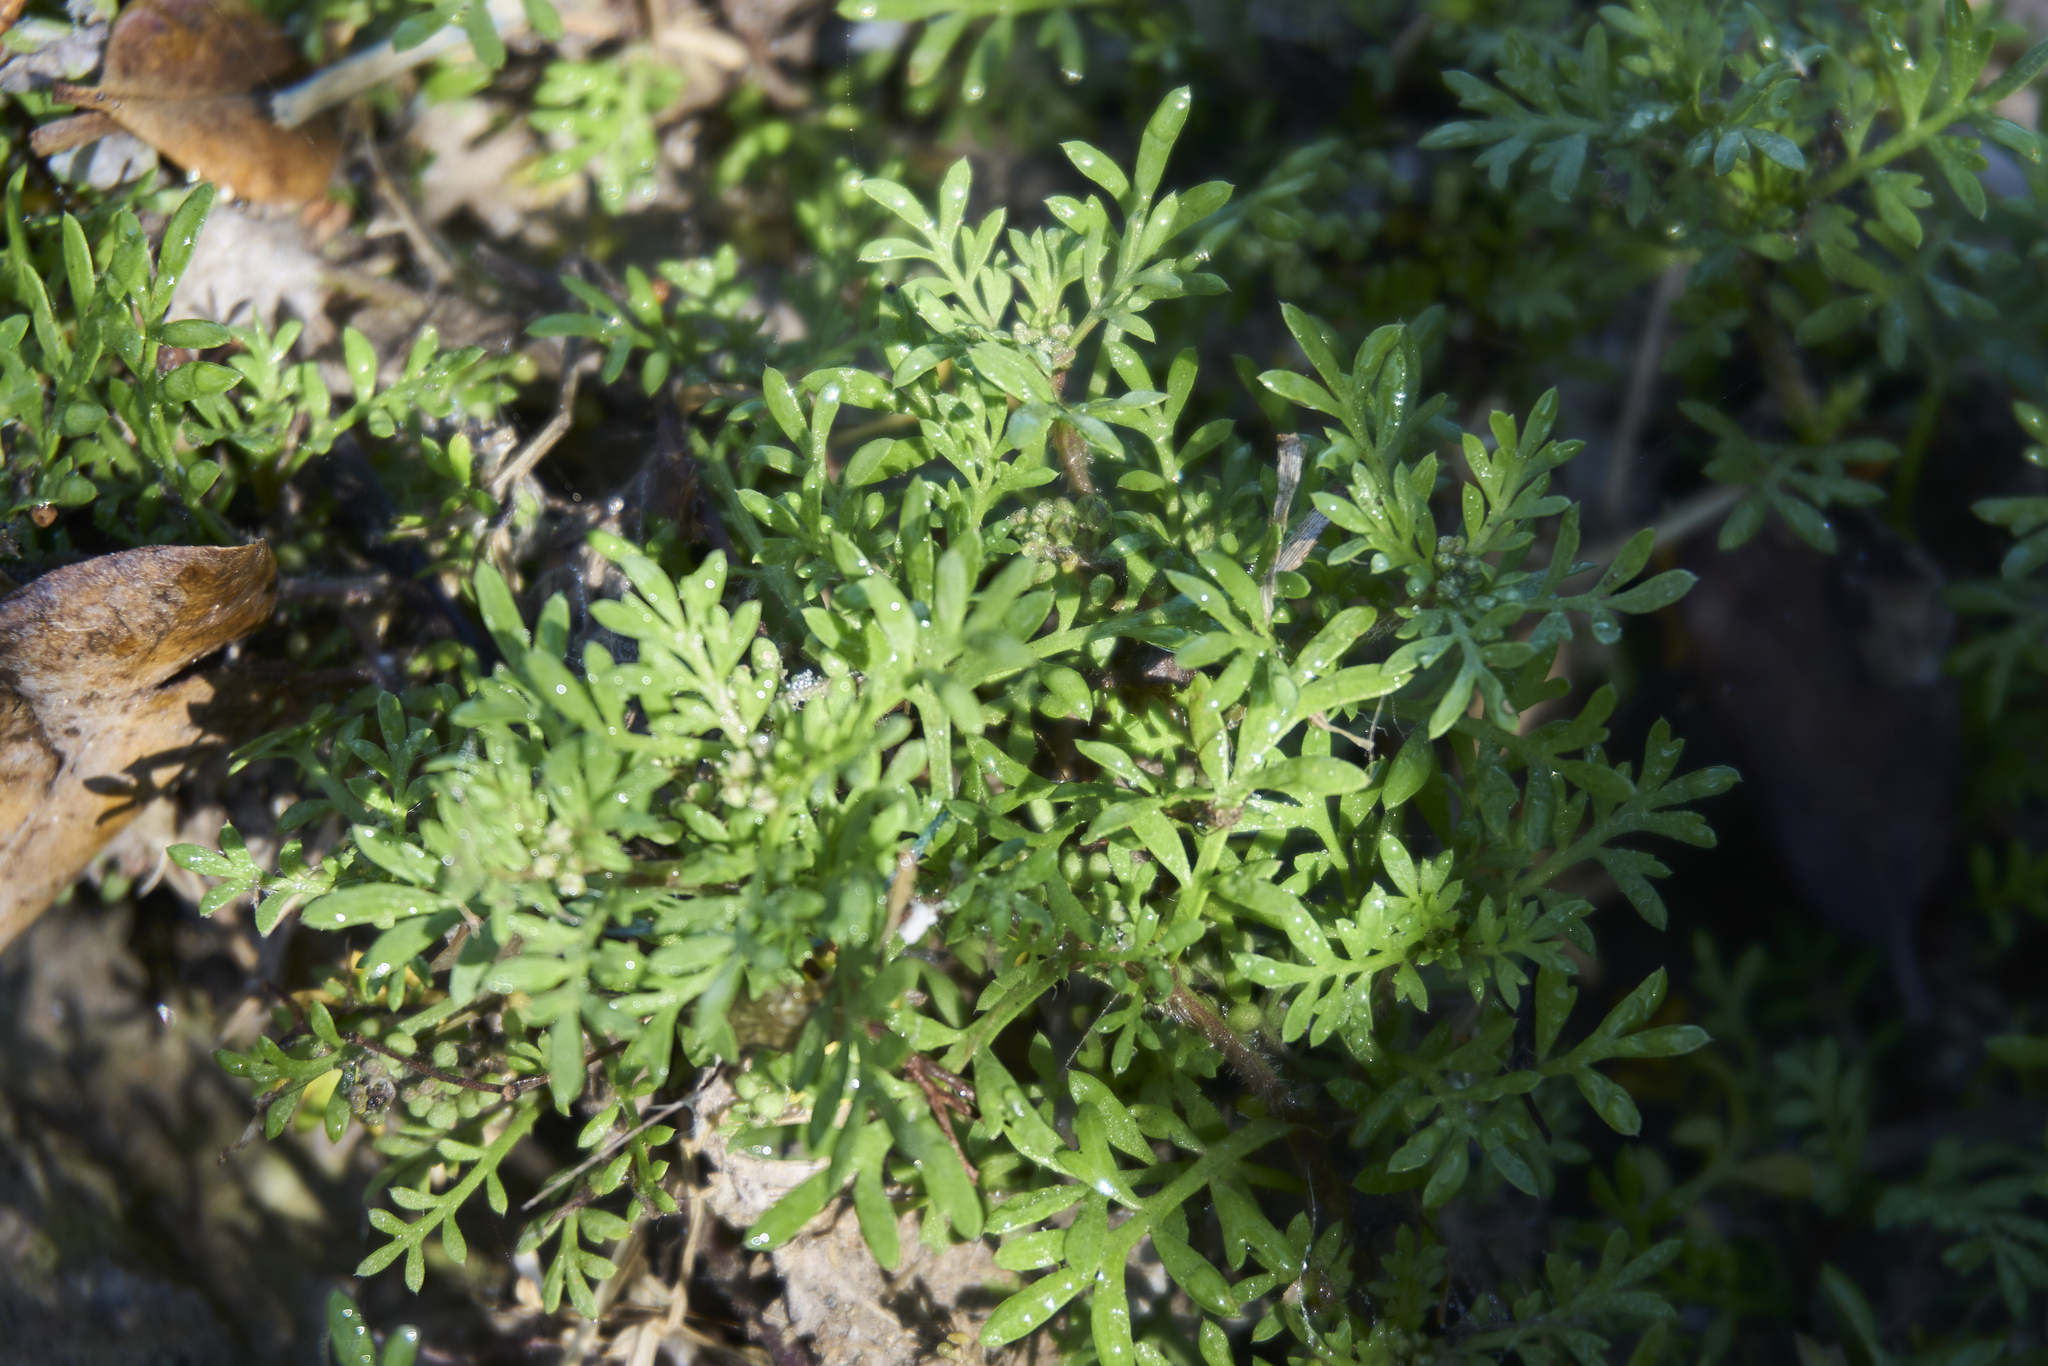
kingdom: Plantae
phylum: Tracheophyta
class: Magnoliopsida
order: Brassicales
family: Brassicaceae
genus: Lepidium
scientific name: Lepidium didymum
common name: Lesser swinecress
